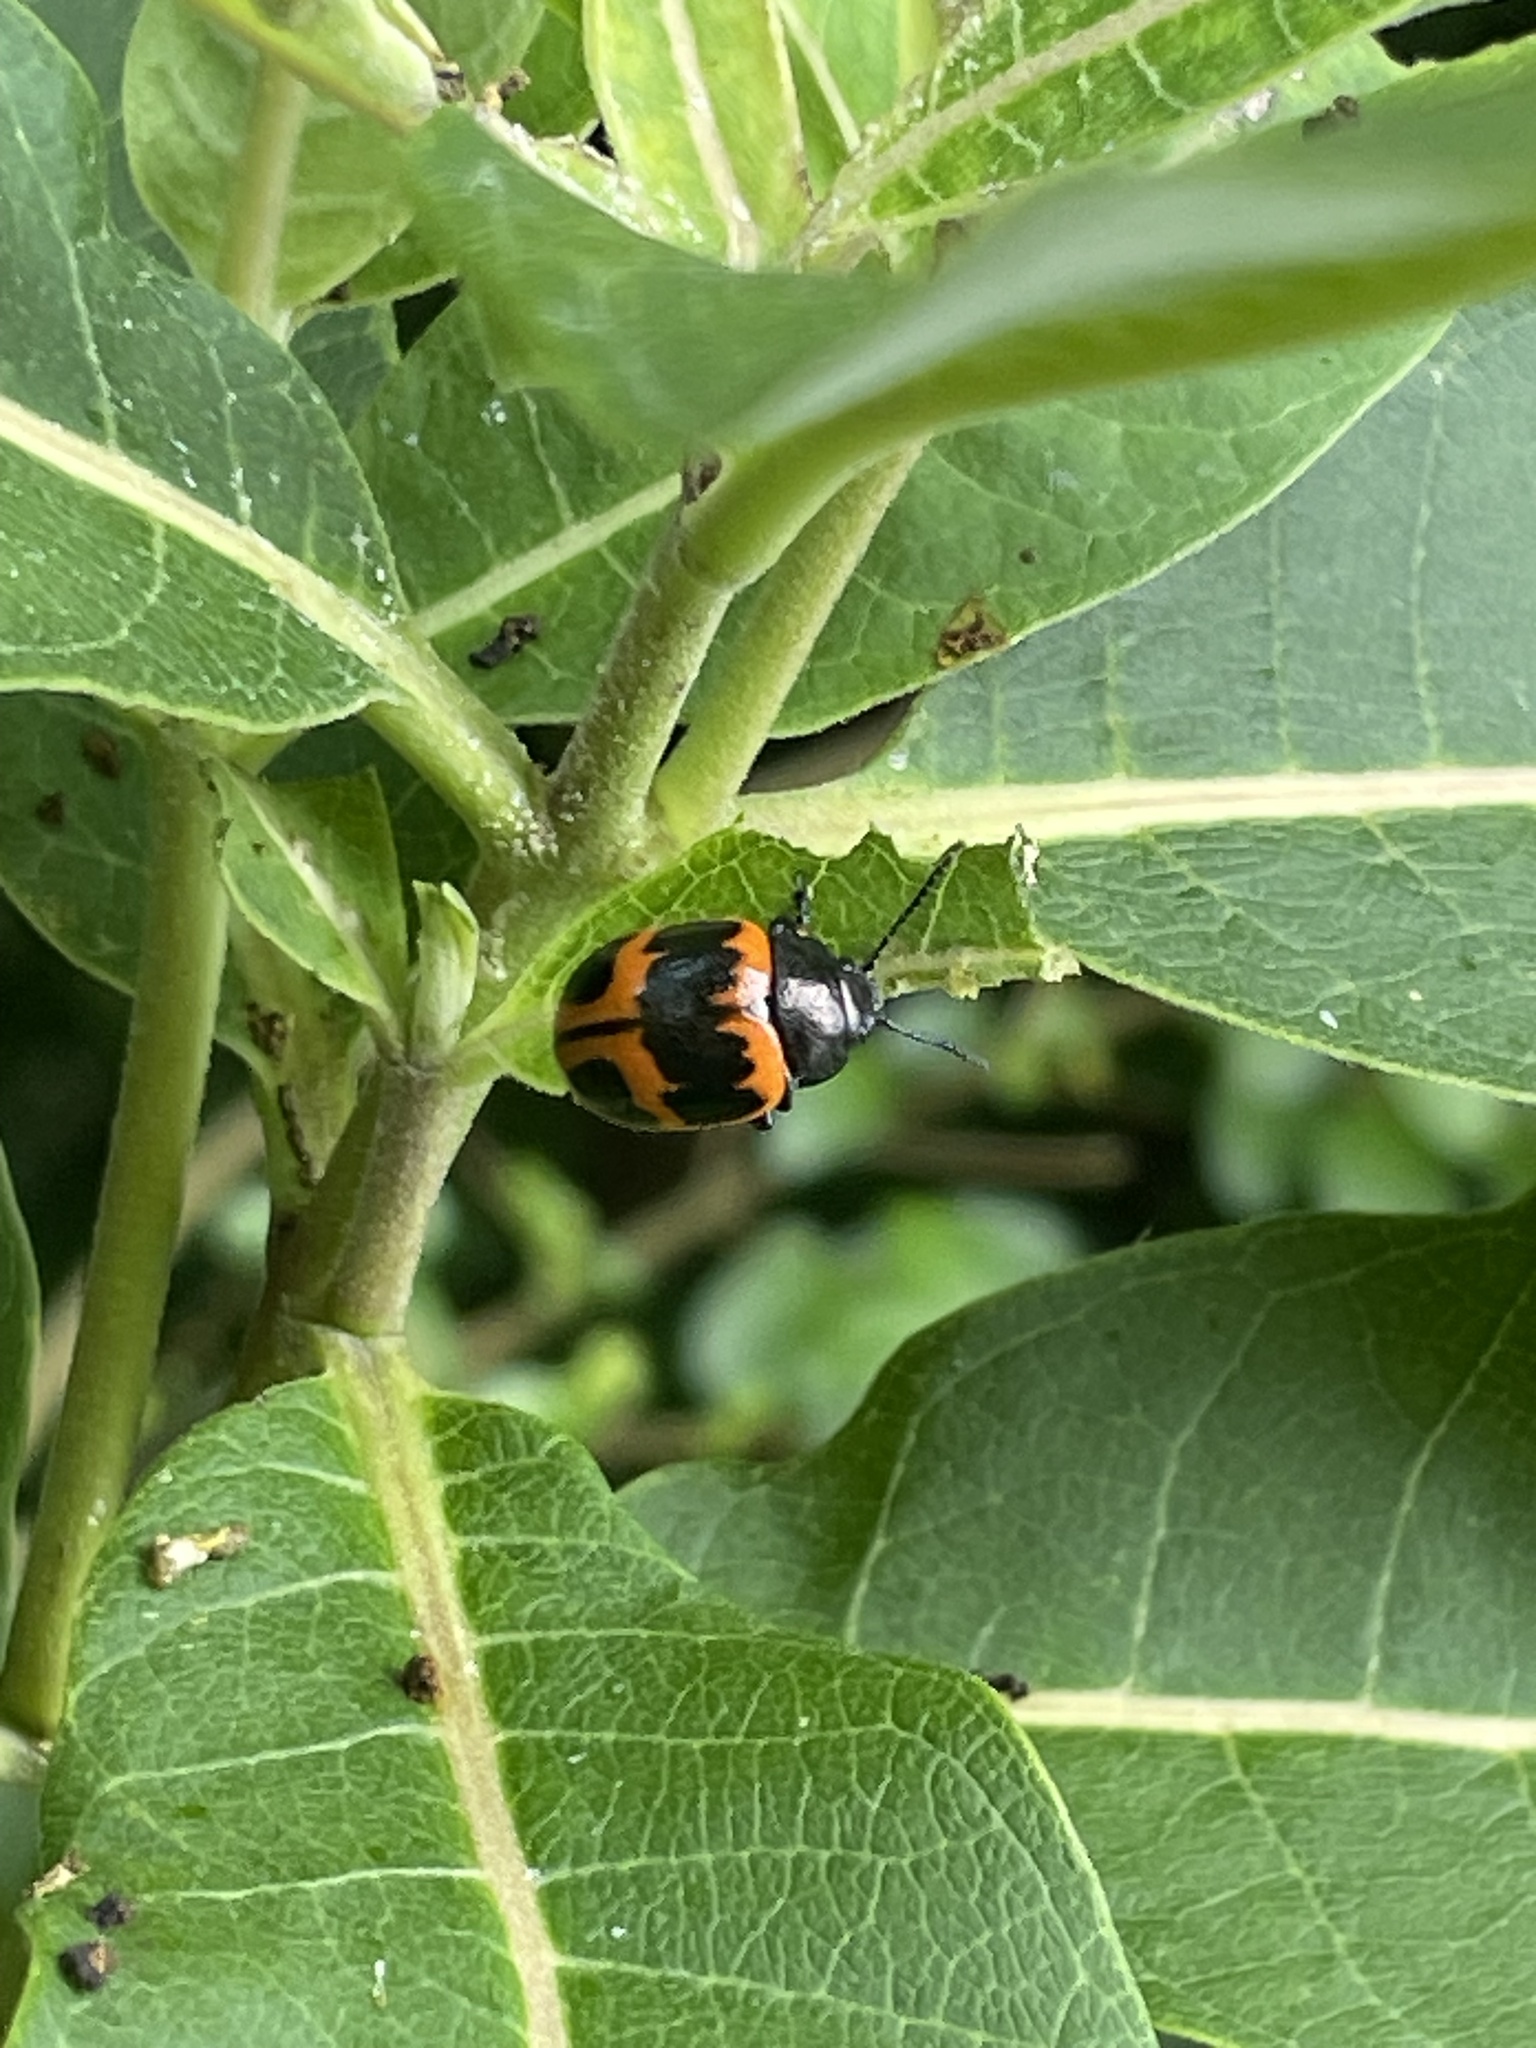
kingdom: Animalia
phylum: Arthropoda
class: Insecta
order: Coleoptera
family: Chrysomelidae
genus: Labidomera
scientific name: Labidomera clivicollis
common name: Swamp milkweed leaf beetle
